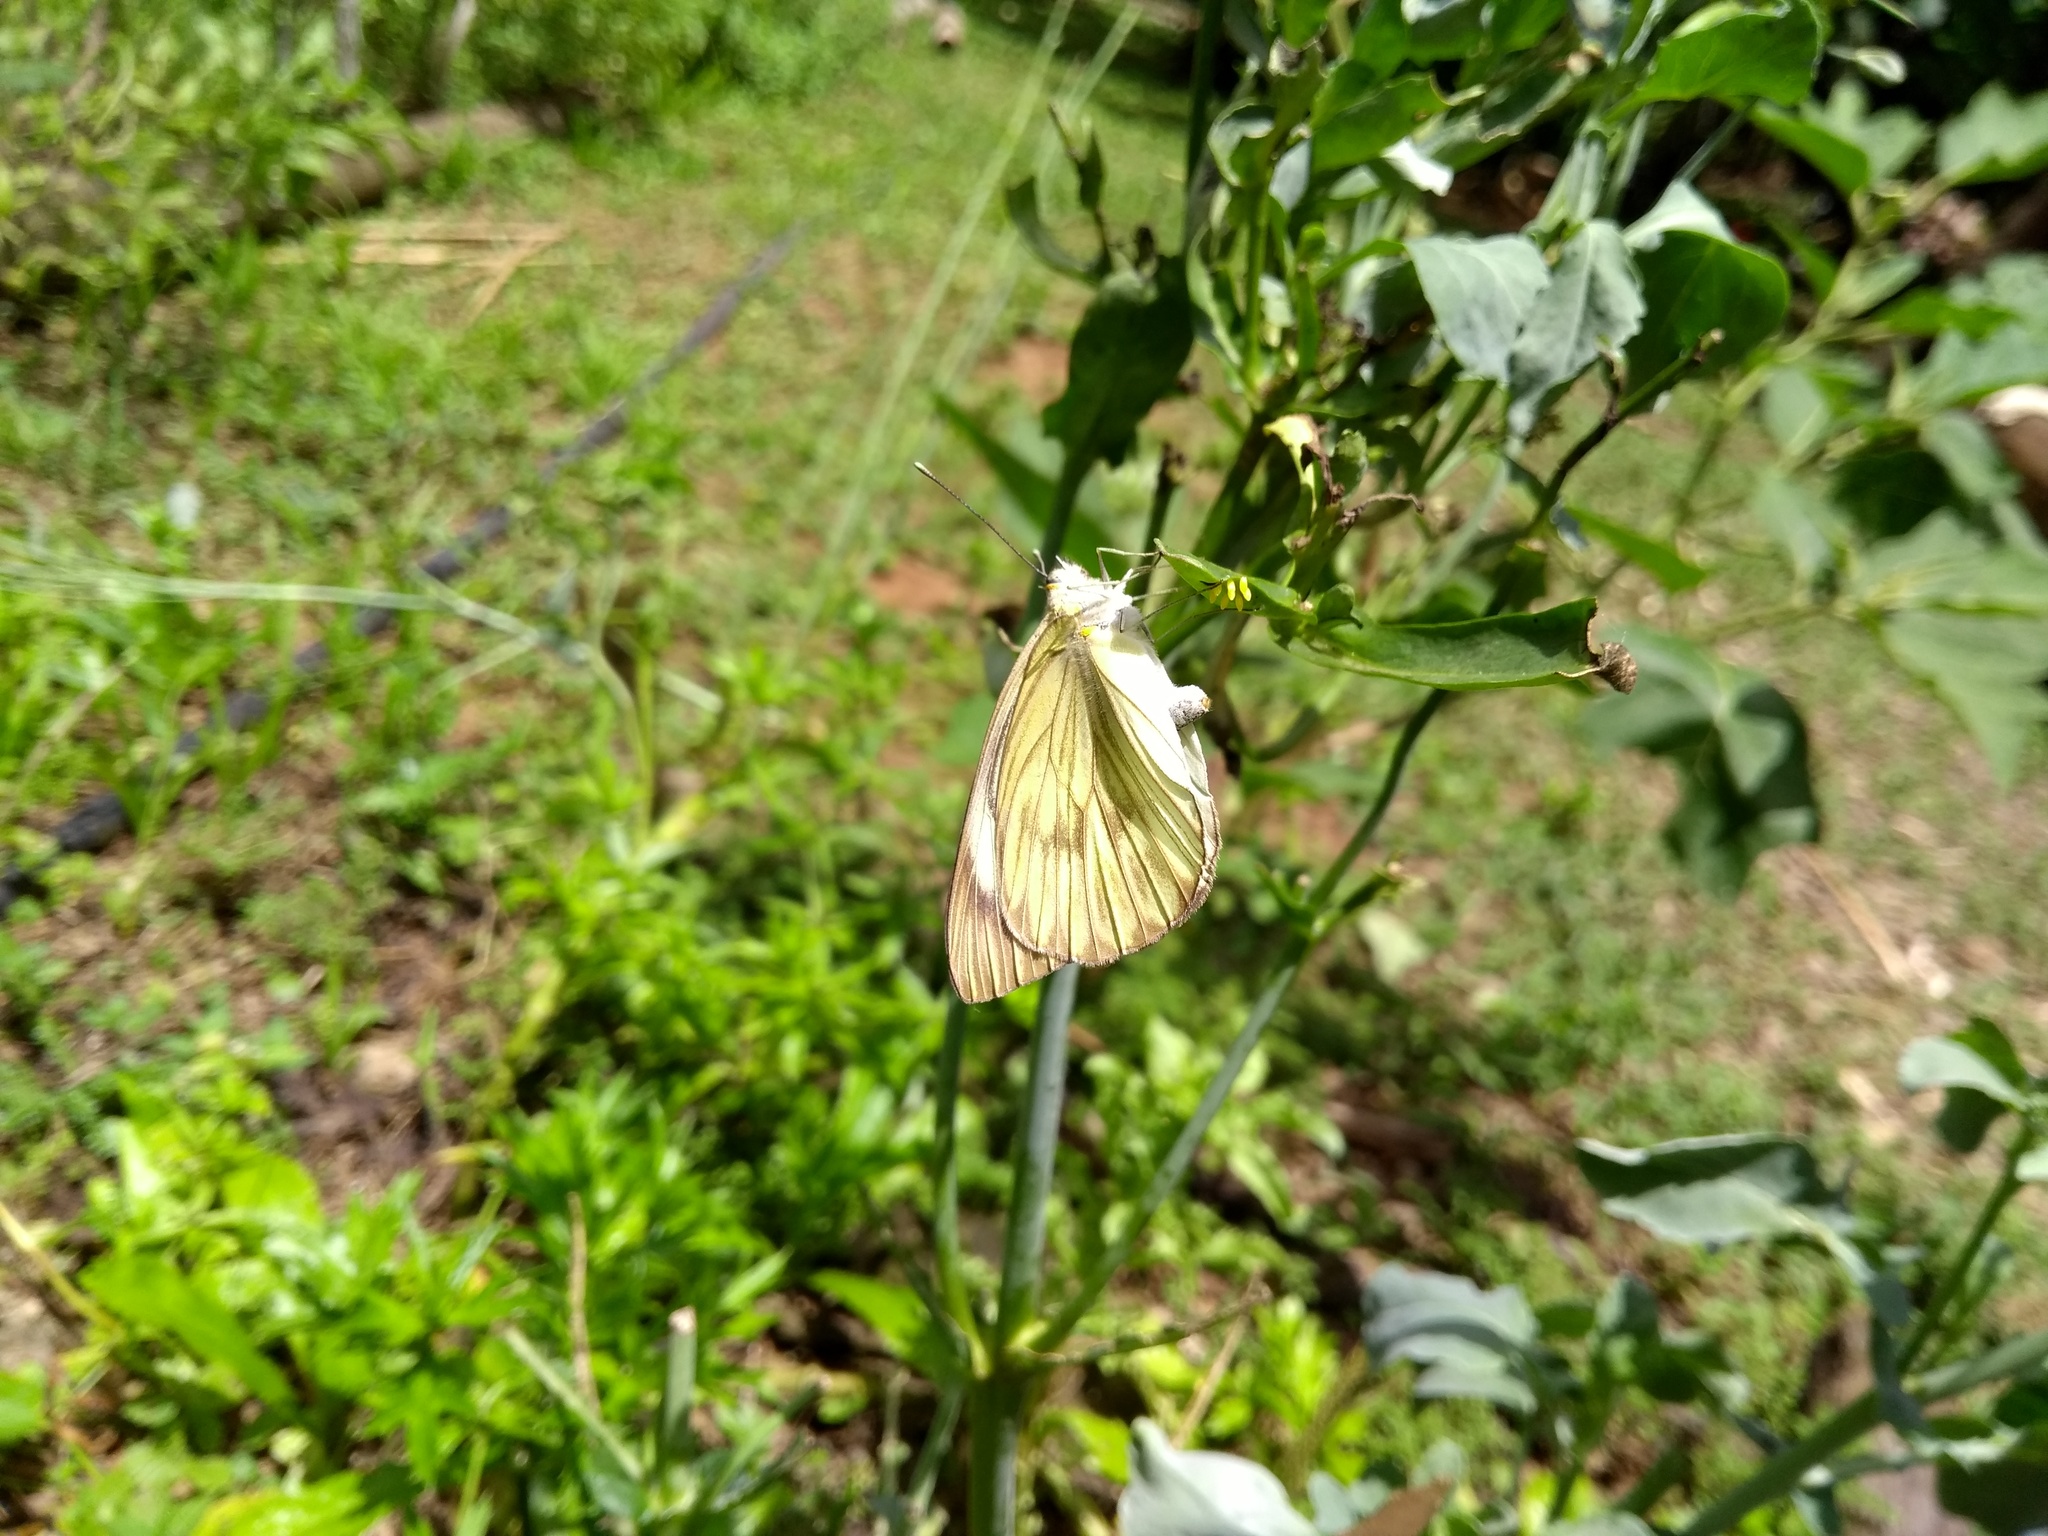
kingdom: Animalia
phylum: Arthropoda
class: Insecta
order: Lepidoptera
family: Pieridae
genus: Ascia
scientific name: Ascia monuste
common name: Great southern white
